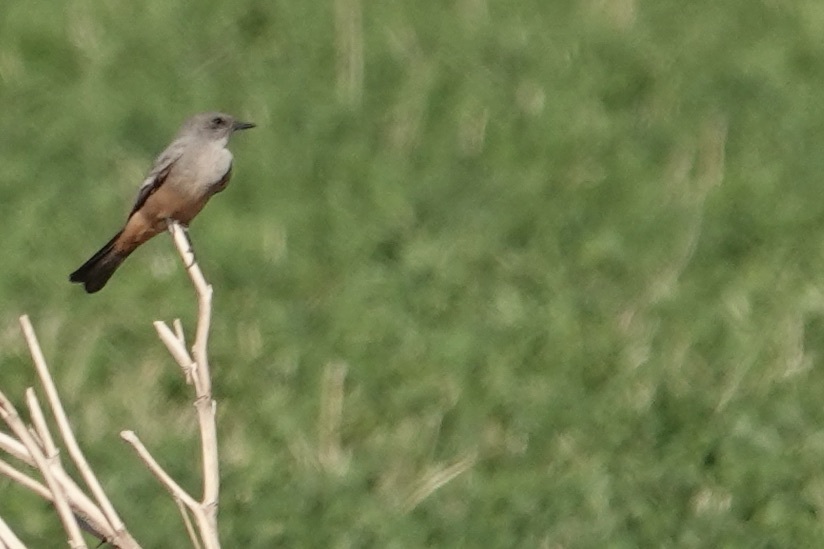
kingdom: Animalia
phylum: Chordata
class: Aves
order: Passeriformes
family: Tyrannidae
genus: Sayornis
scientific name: Sayornis saya
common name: Say's phoebe
